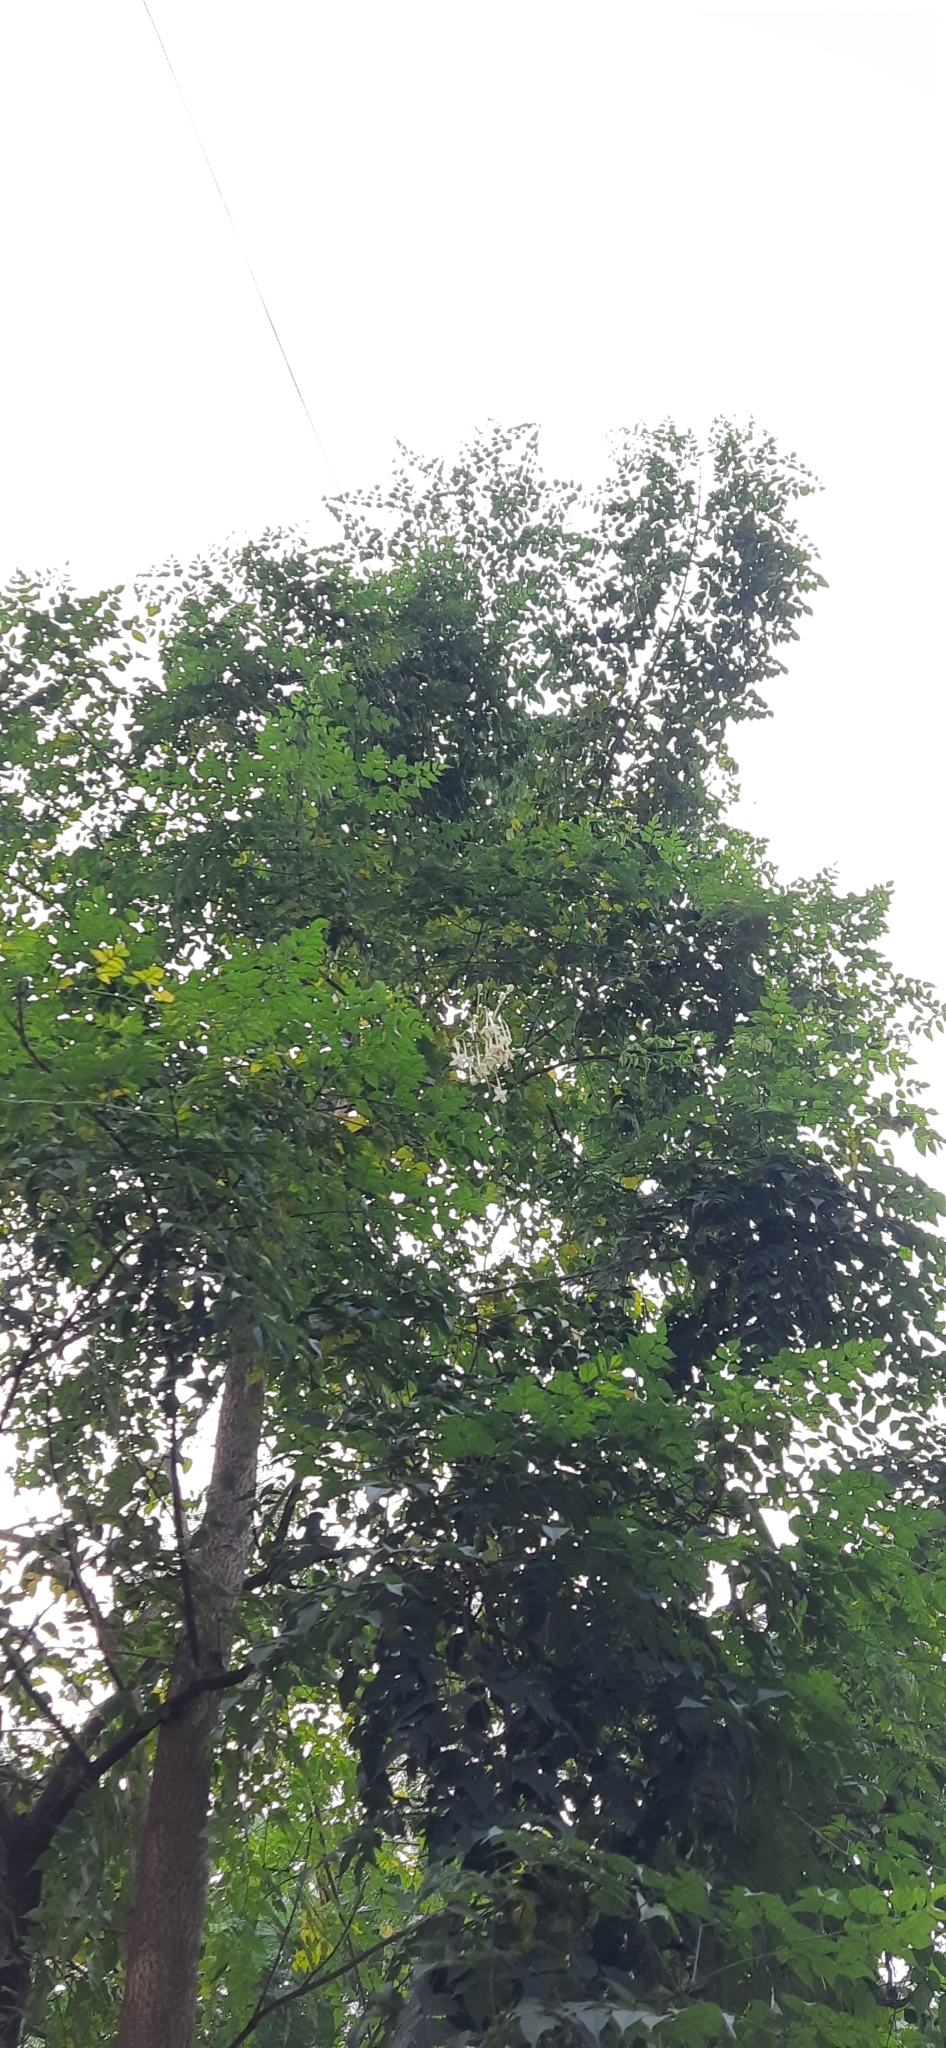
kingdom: Plantae
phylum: Tracheophyta
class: Magnoliopsida
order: Lamiales
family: Bignoniaceae
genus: Millingtonia
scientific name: Millingtonia hortensis
